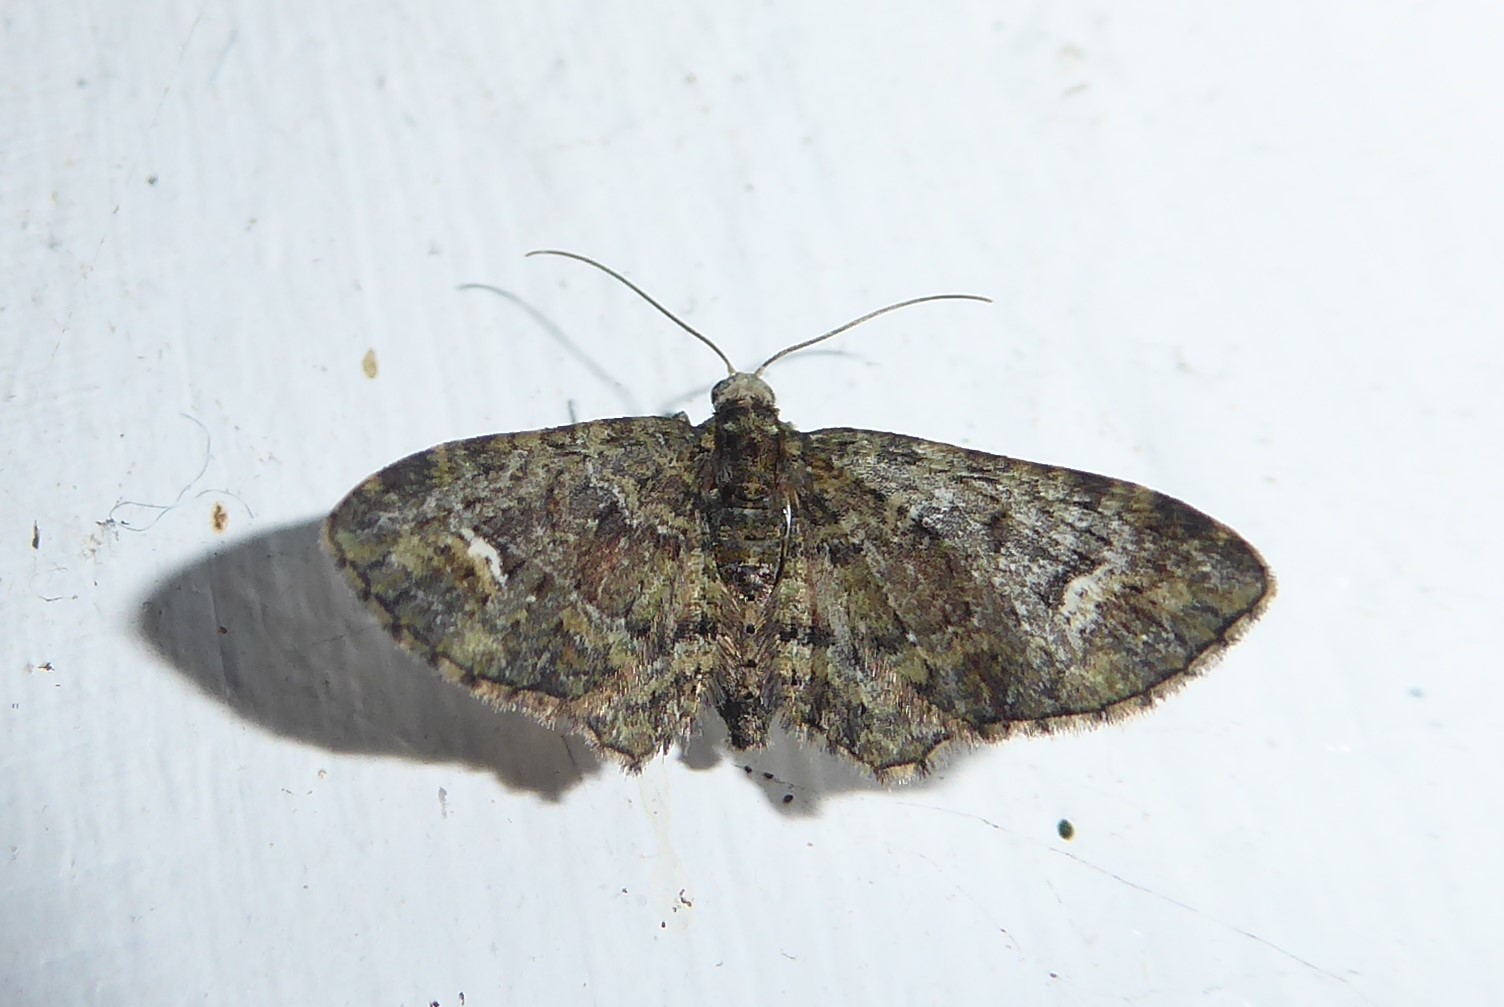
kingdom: Animalia
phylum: Arthropoda
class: Insecta
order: Lepidoptera
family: Geometridae
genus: Pasiphilodes
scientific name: Pasiphilodes testulata
